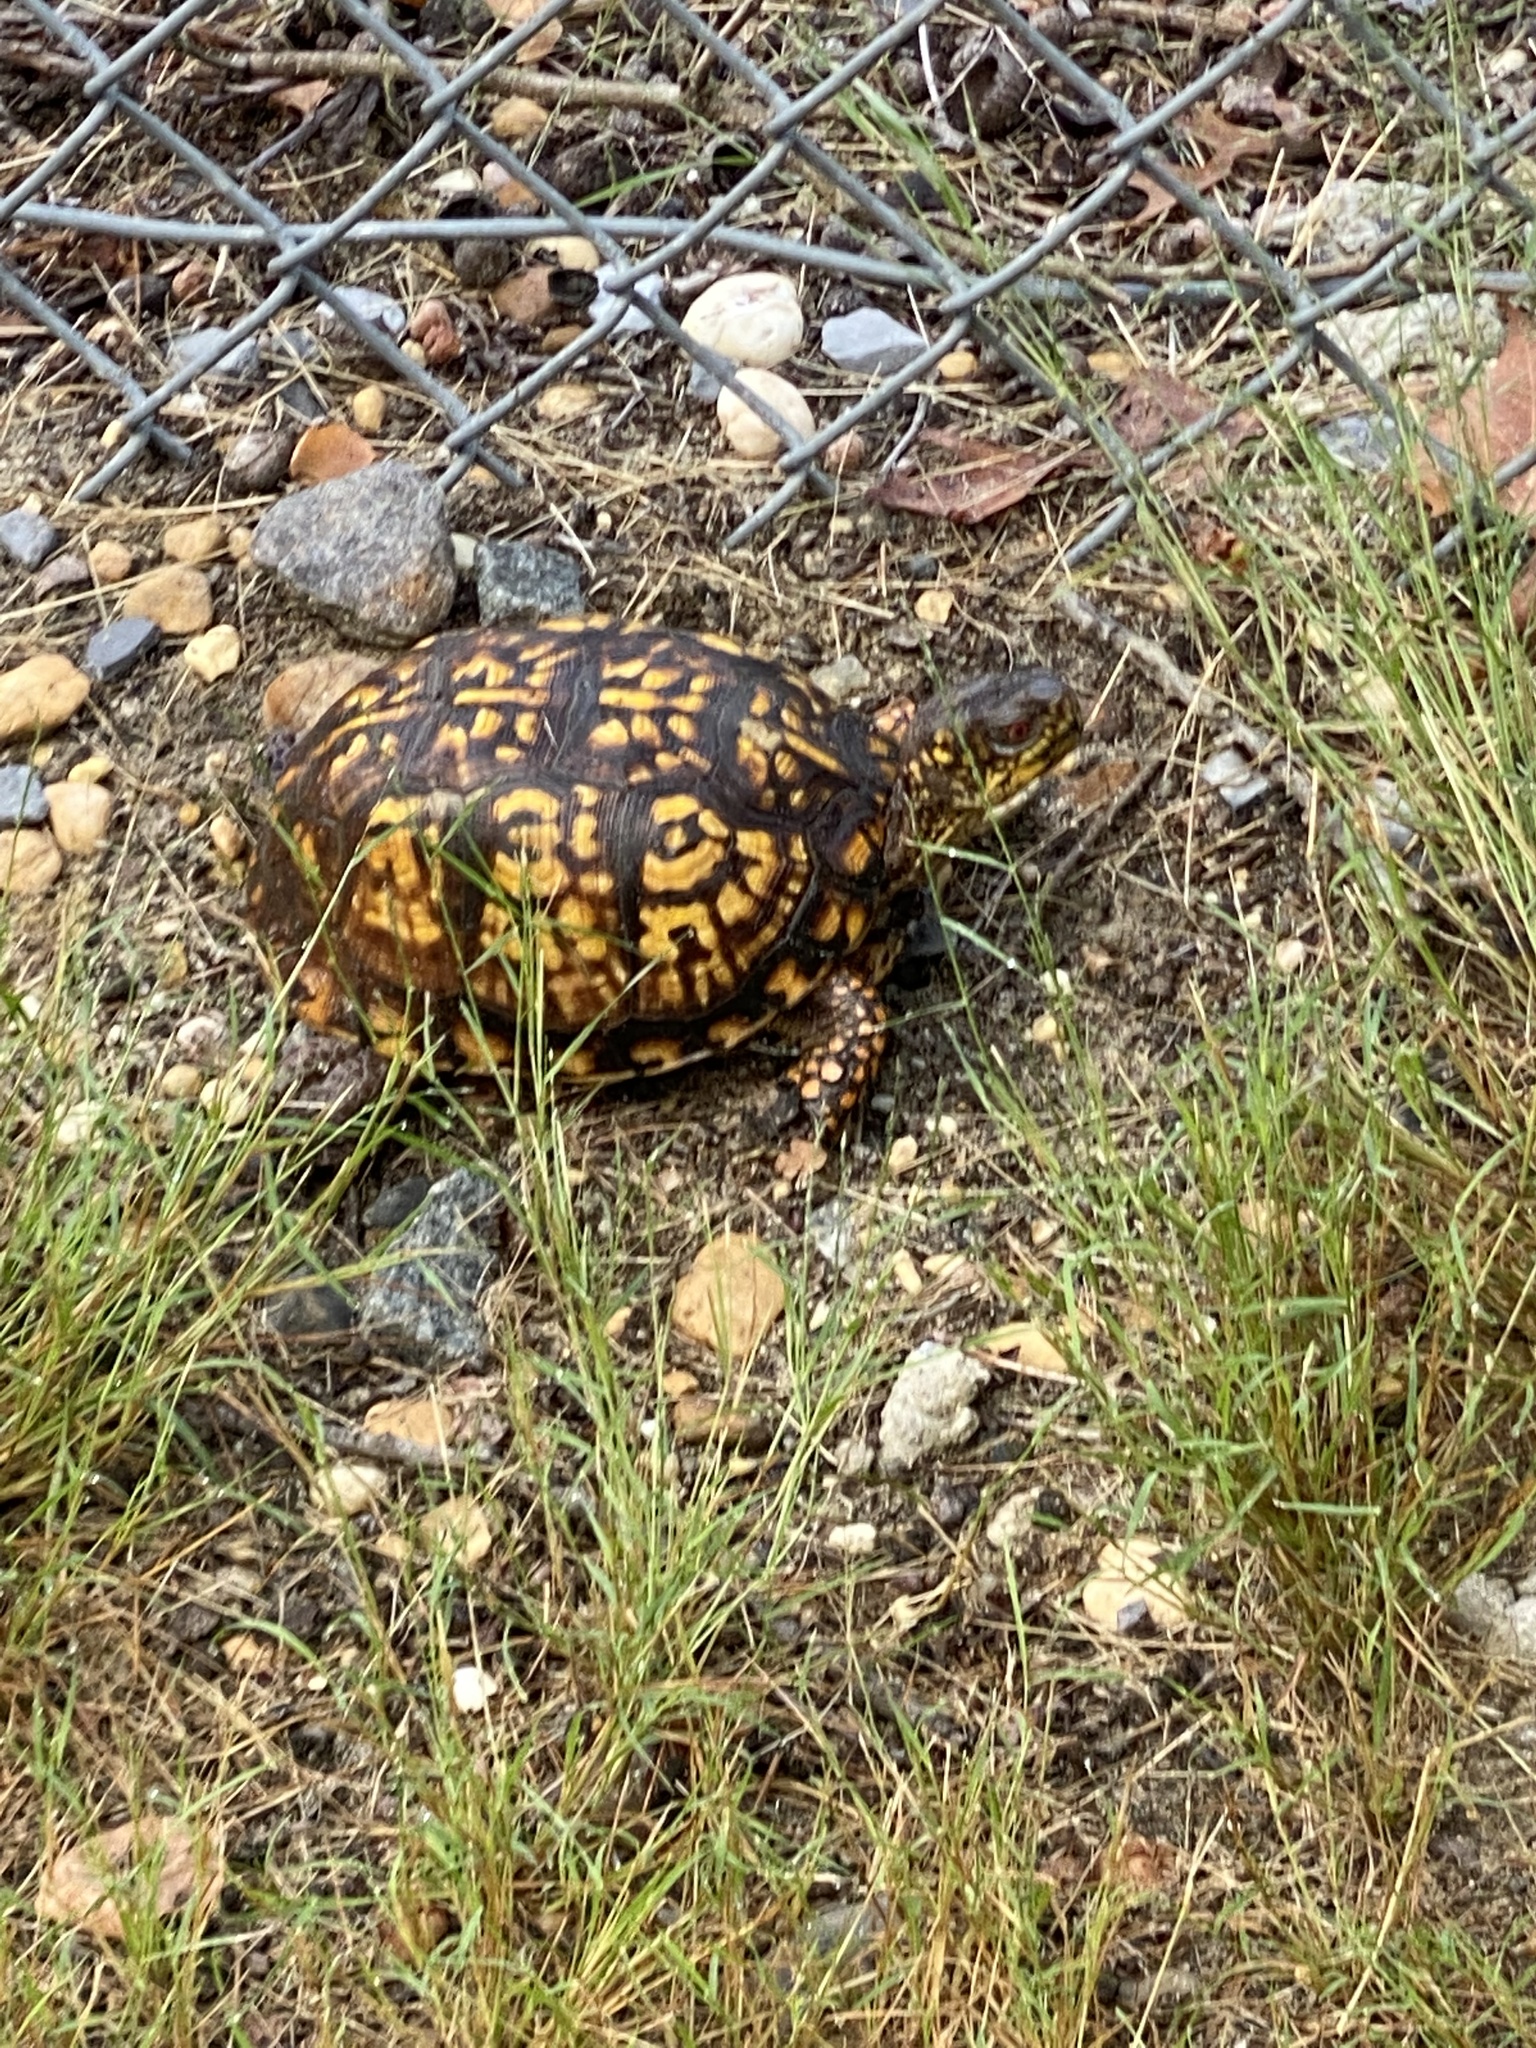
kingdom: Animalia
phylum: Chordata
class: Testudines
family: Emydidae
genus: Terrapene
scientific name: Terrapene carolina
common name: Common box turtle
